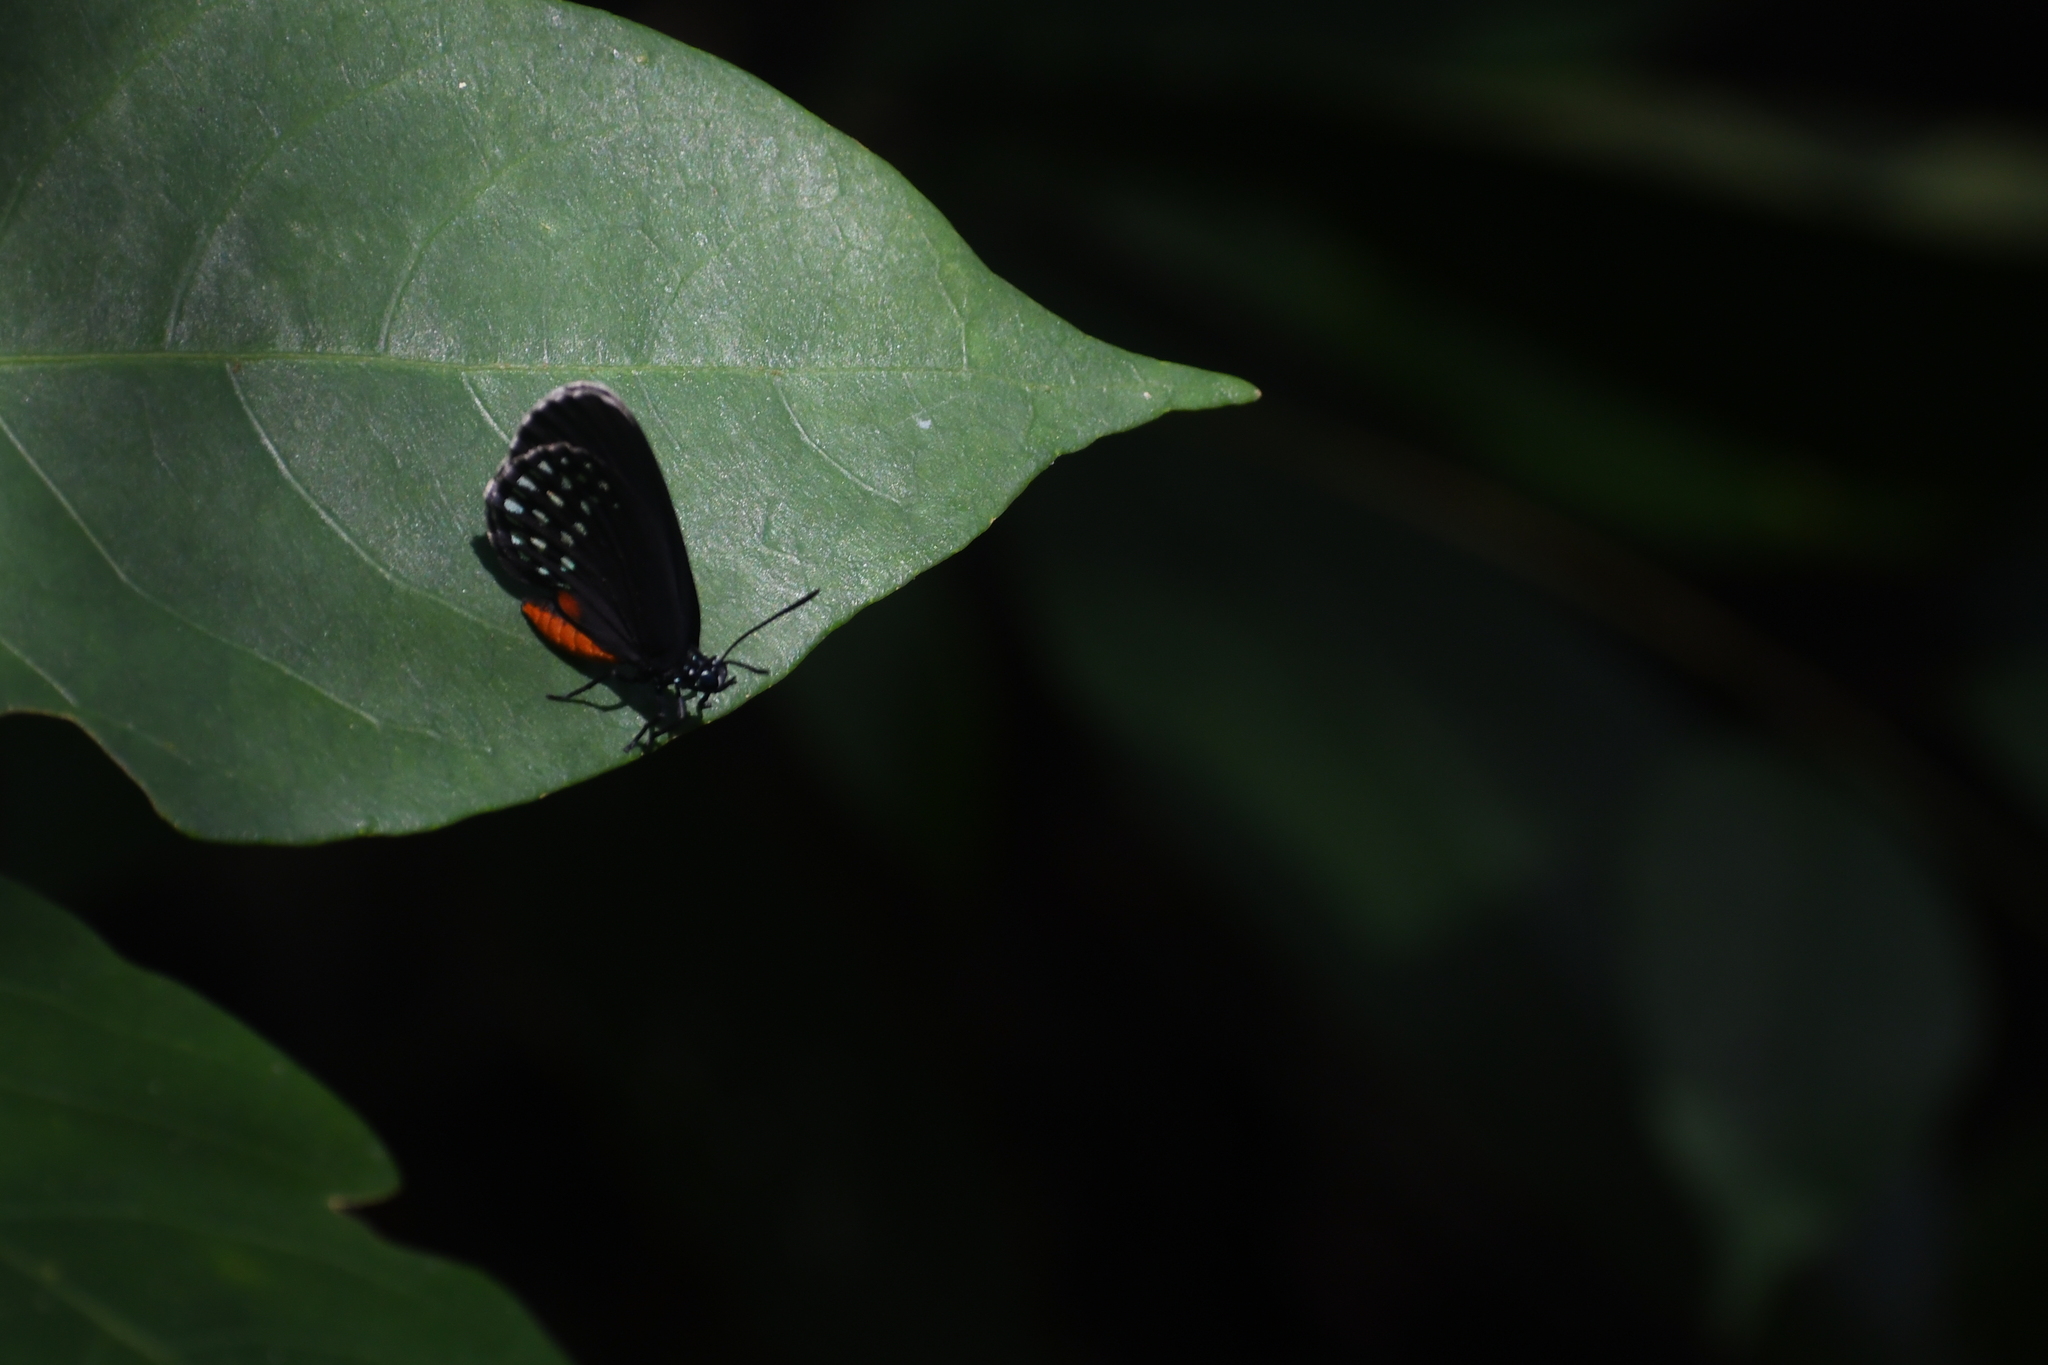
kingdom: Animalia
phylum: Arthropoda
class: Insecta
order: Lepidoptera
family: Lycaenidae
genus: Eumaeus
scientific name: Eumaeus toxea
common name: Mexican cycadian
